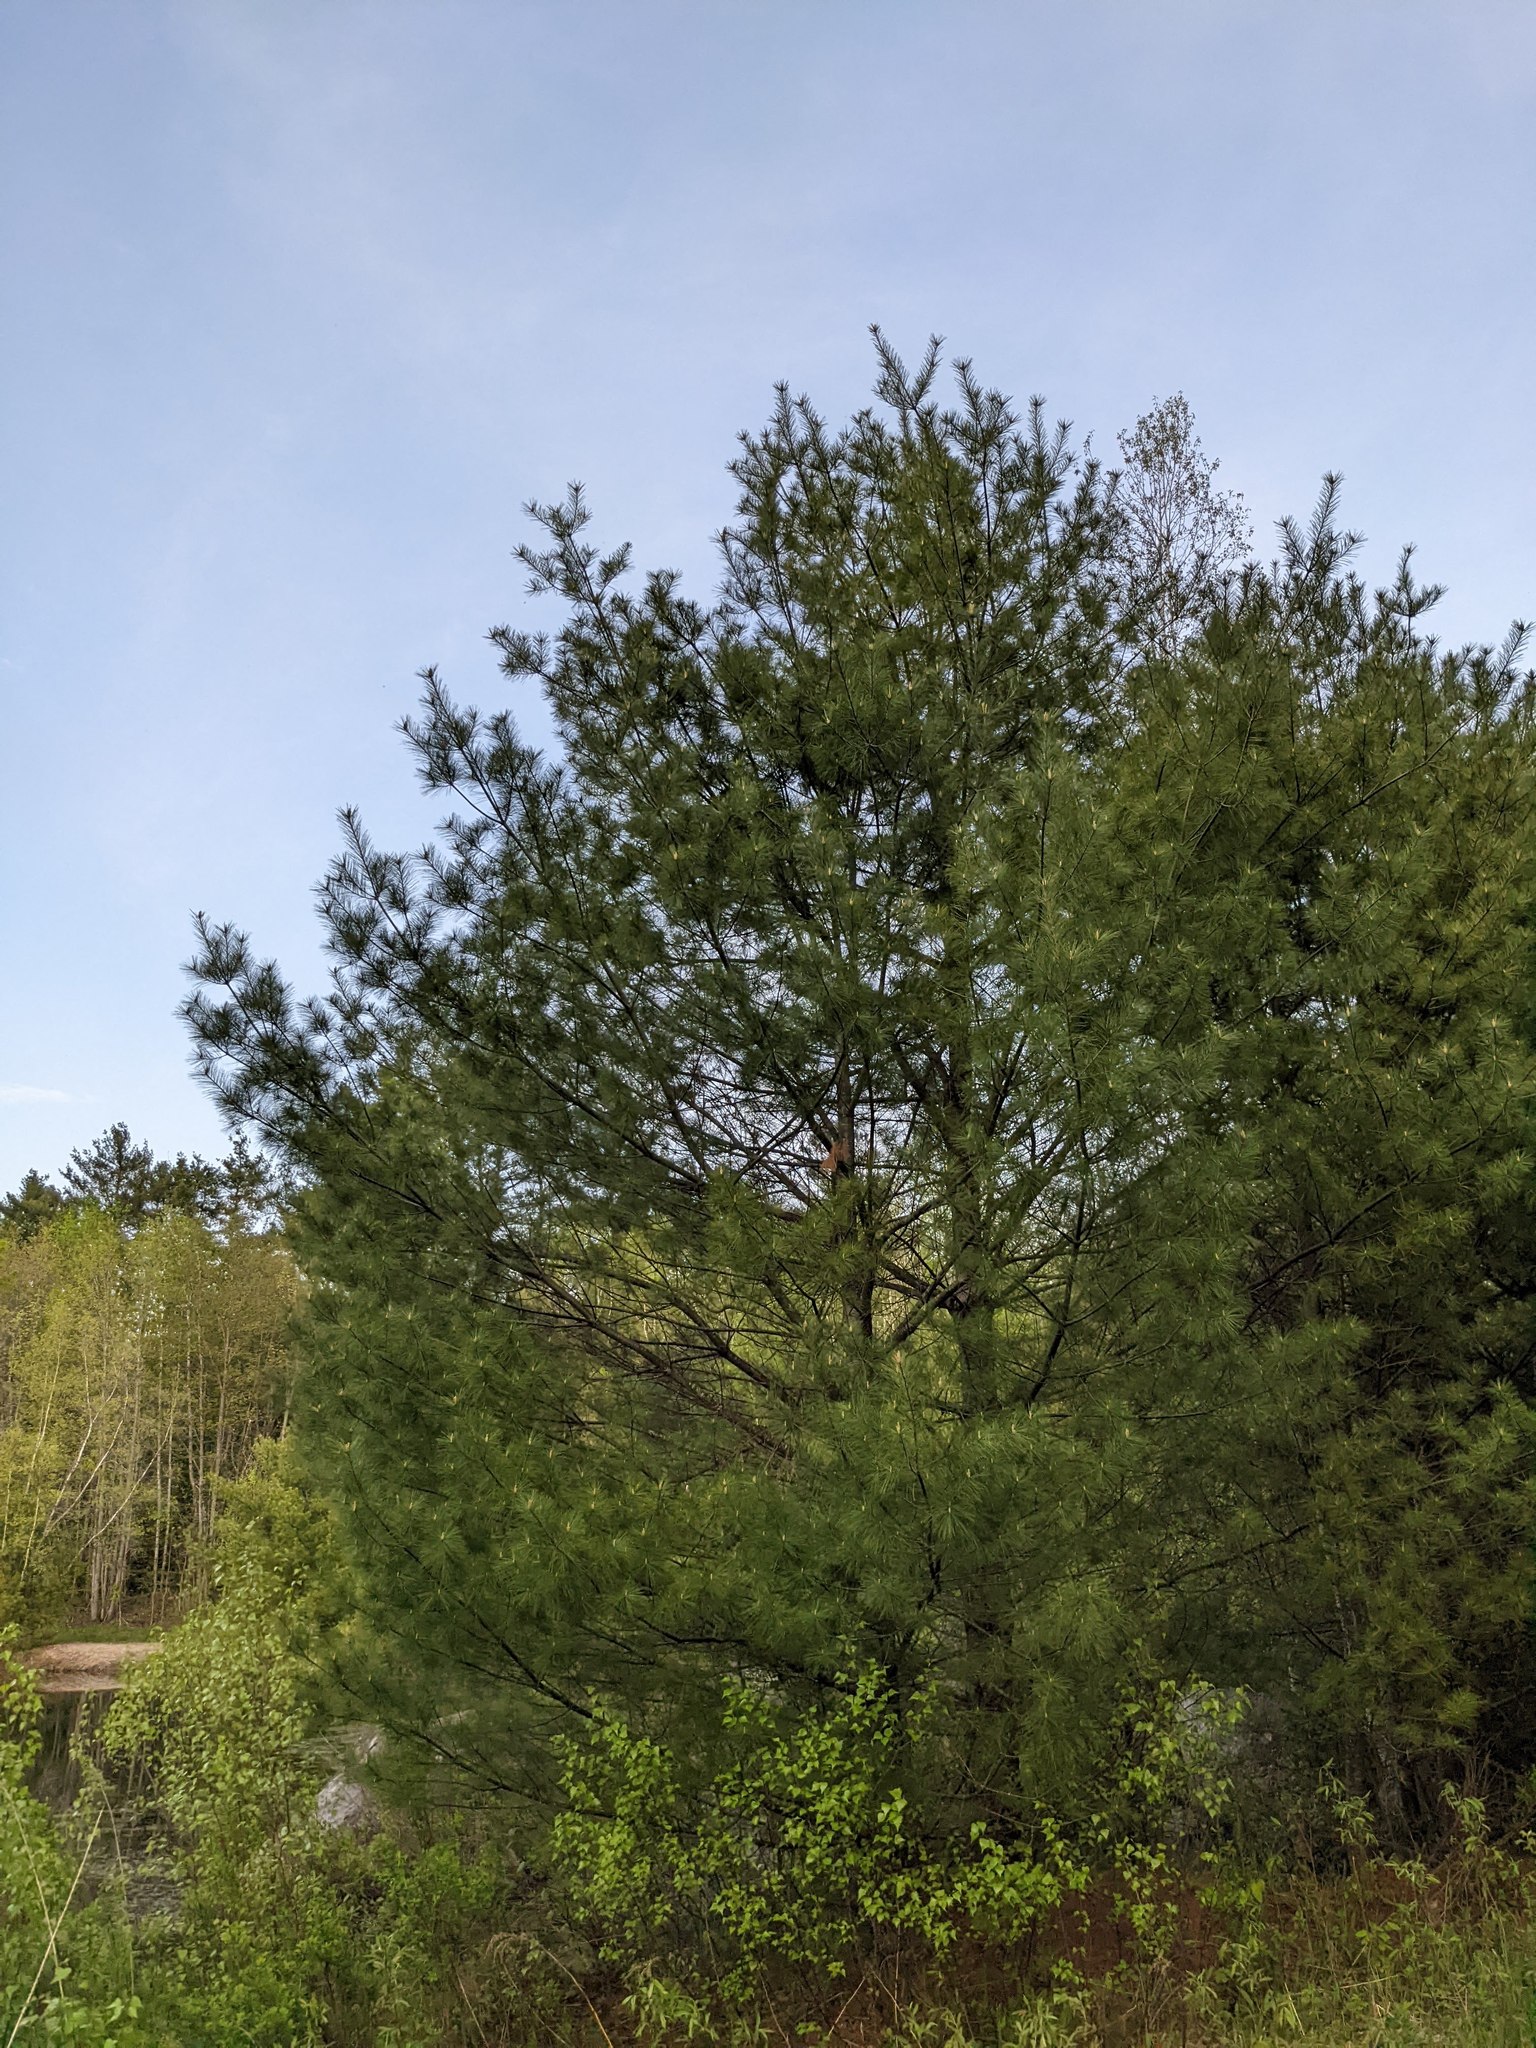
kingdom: Plantae
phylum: Tracheophyta
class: Pinopsida
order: Pinales
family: Pinaceae
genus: Pinus
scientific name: Pinus strobus
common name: Weymouth pine
